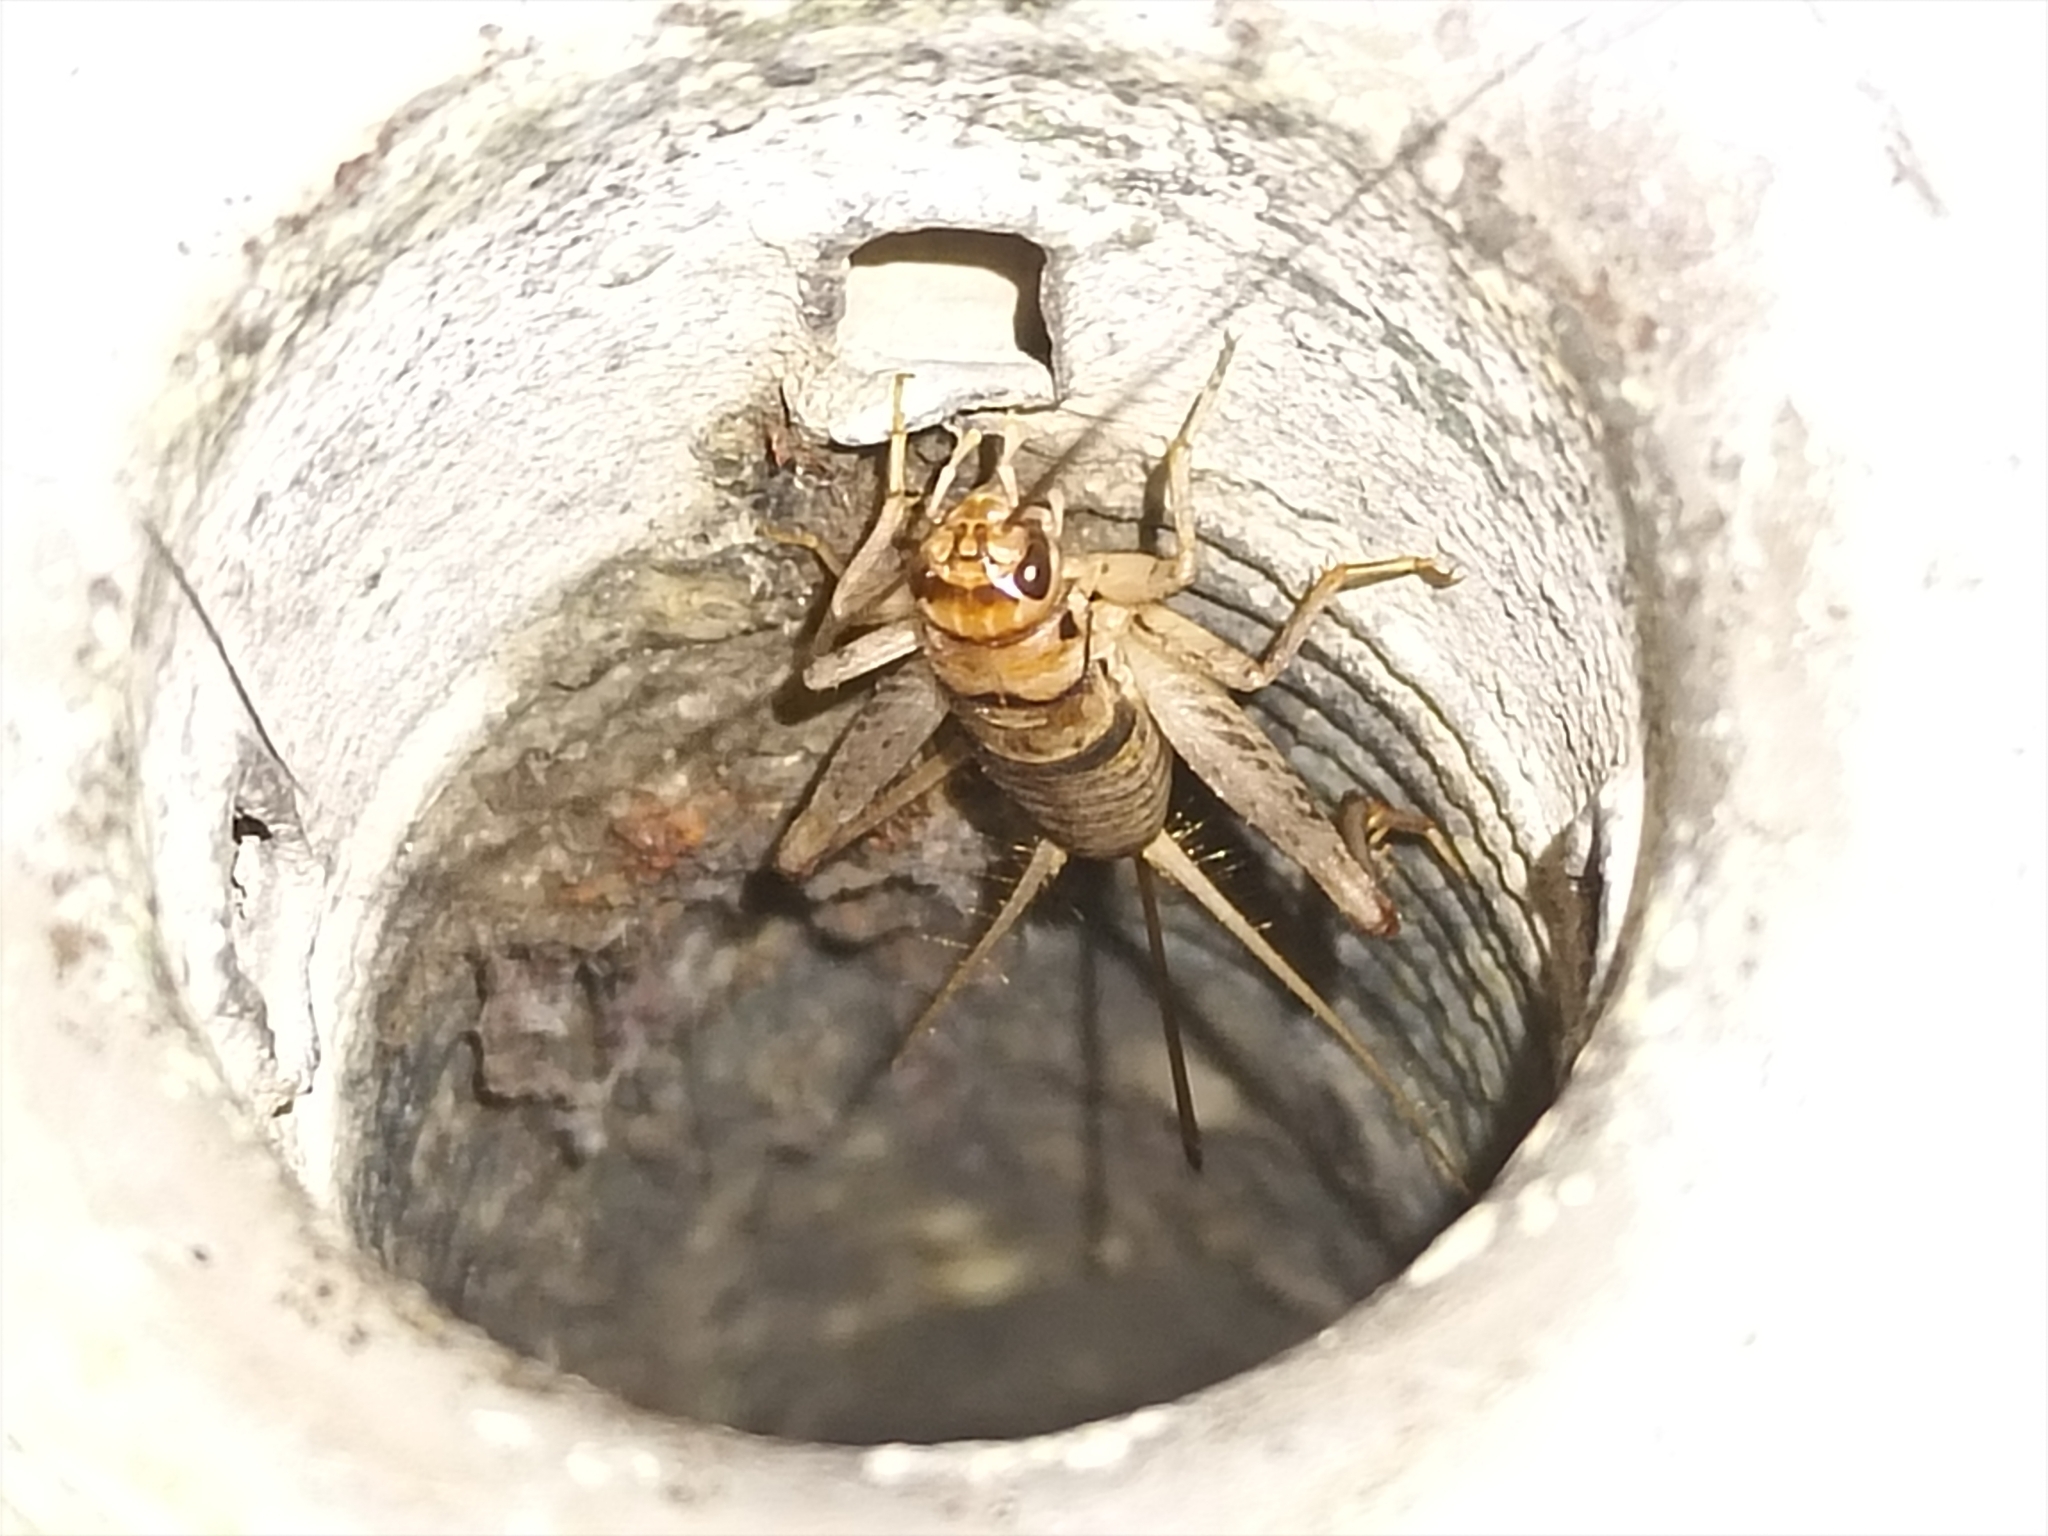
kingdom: Animalia
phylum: Arthropoda
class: Insecta
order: Orthoptera
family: Gryllidae
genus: Gryllodes
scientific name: Gryllodes sigillatus
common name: Tropical house cricket
